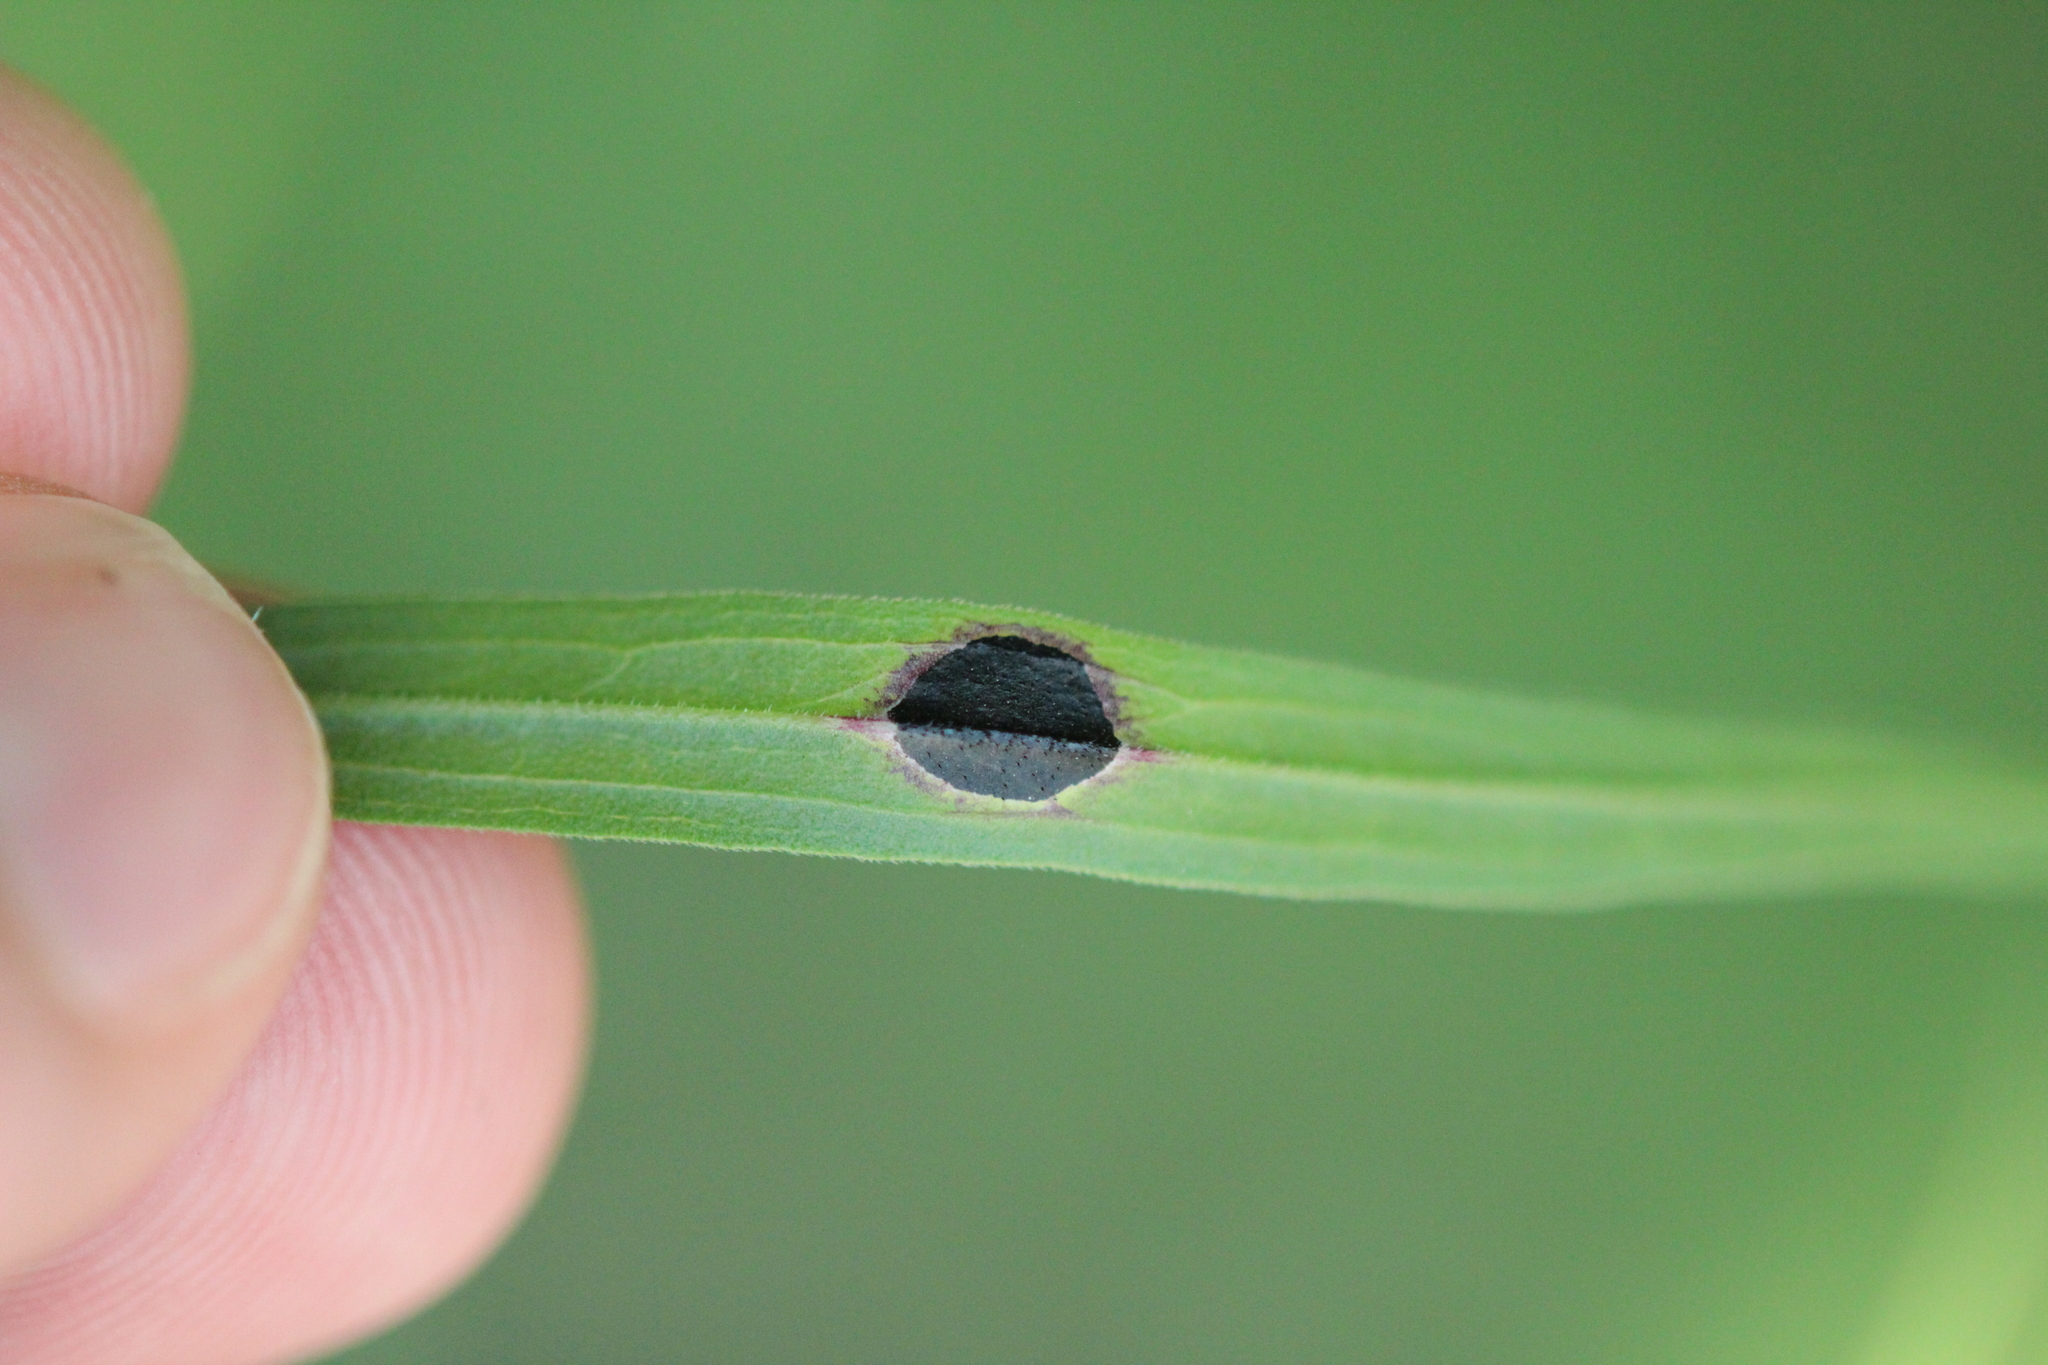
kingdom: Animalia
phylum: Arthropoda
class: Insecta
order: Diptera
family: Cecidomyiidae
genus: Asteromyia
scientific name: Asteromyia euthamiae
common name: Euthamia leaf gall midge
